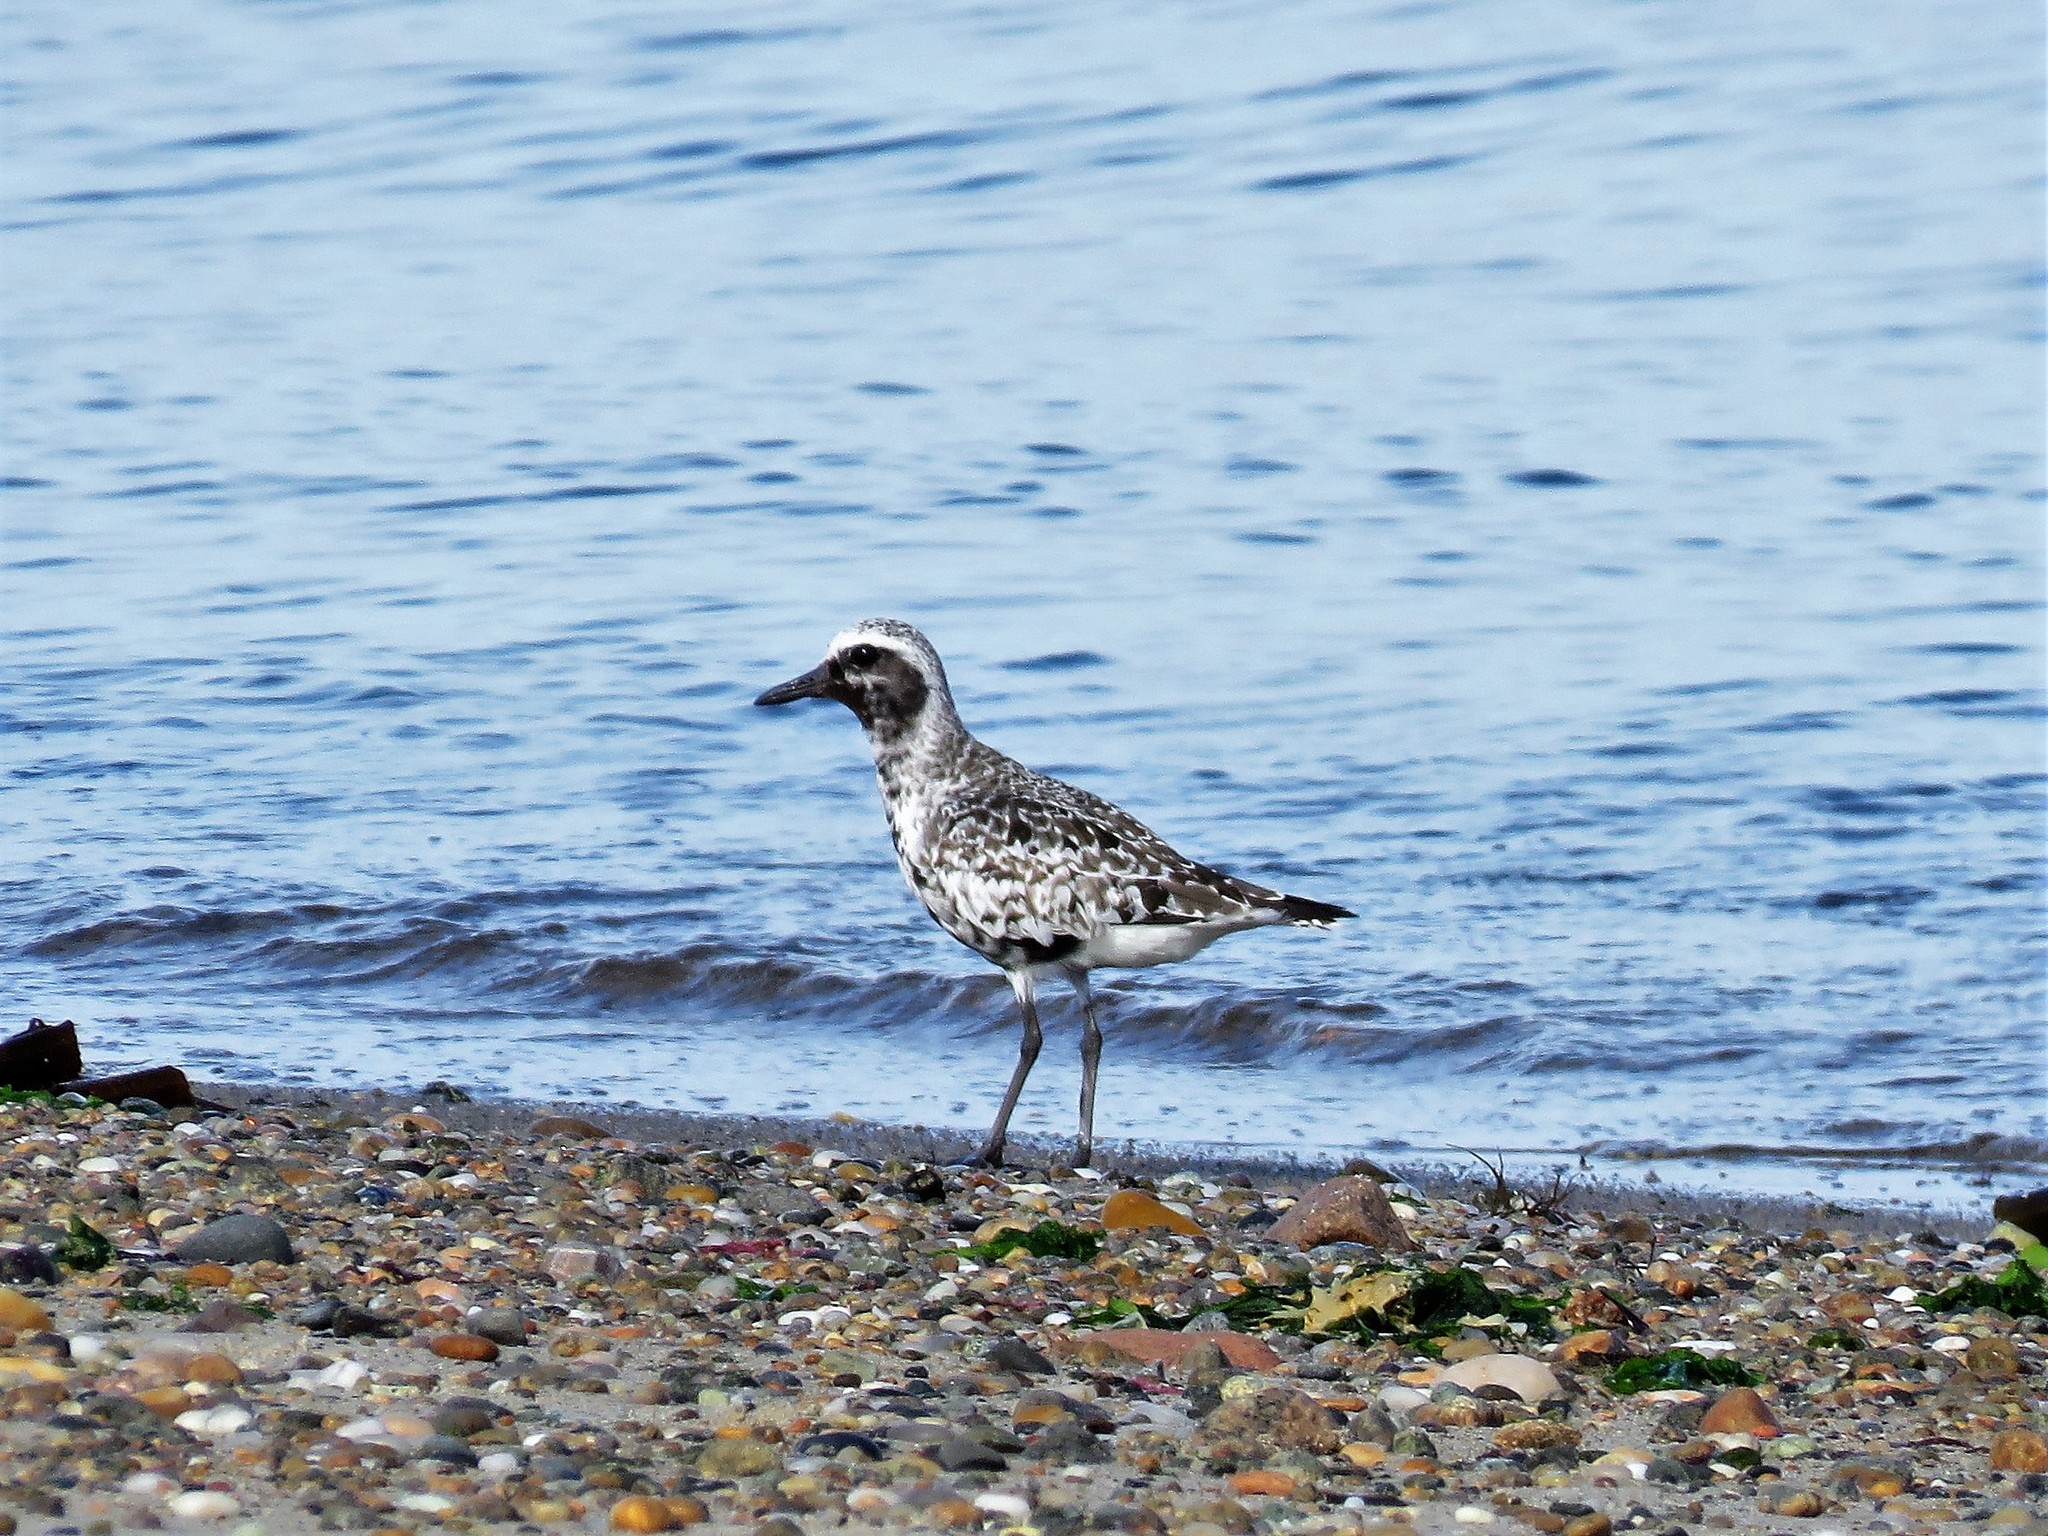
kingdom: Animalia
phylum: Chordata
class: Aves
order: Charadriiformes
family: Charadriidae
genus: Pluvialis
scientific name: Pluvialis squatarola
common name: Grey plover
